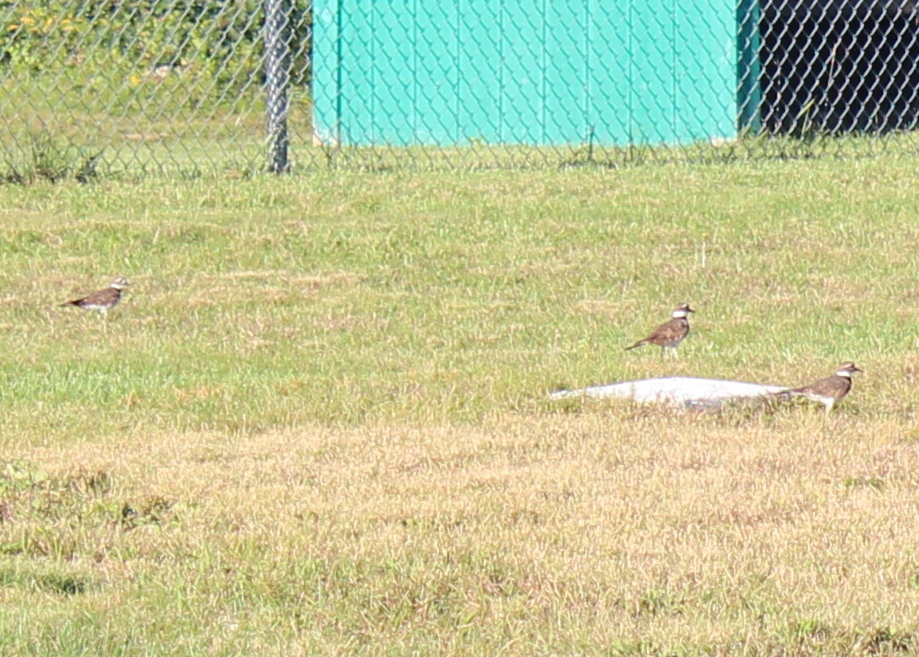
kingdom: Animalia
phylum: Chordata
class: Aves
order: Charadriiformes
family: Charadriidae
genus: Charadrius
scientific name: Charadrius vociferus
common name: Killdeer
